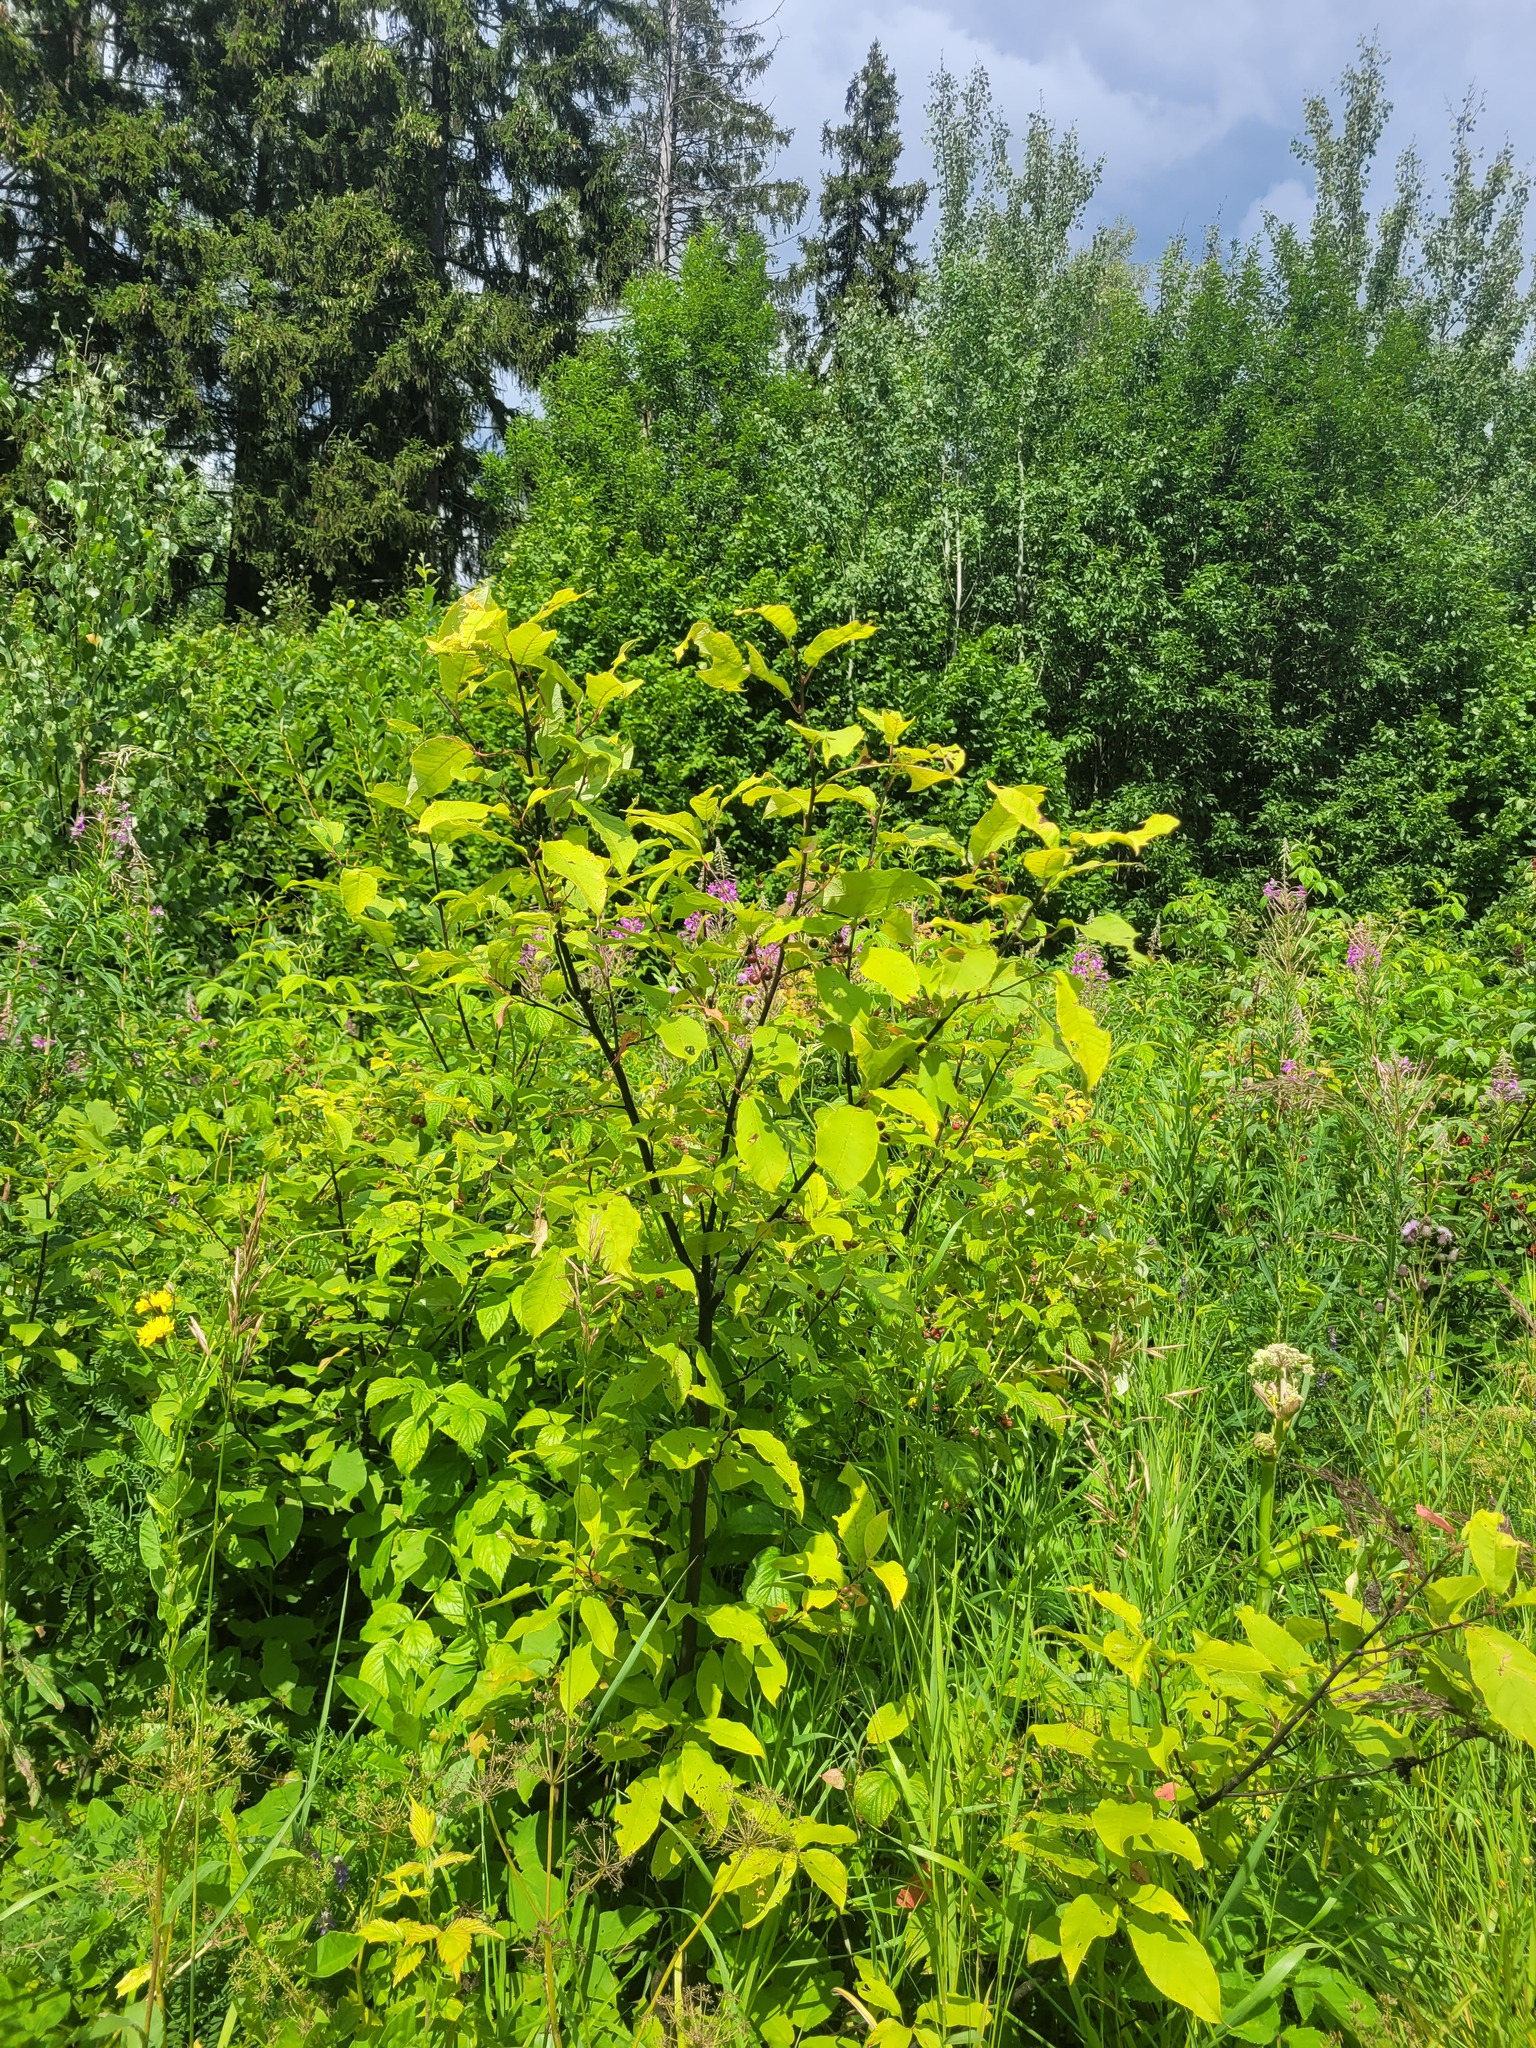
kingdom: Plantae
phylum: Tracheophyta
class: Magnoliopsida
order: Rosales
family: Rosaceae
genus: Prunus
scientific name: Prunus padus
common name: Bird cherry
